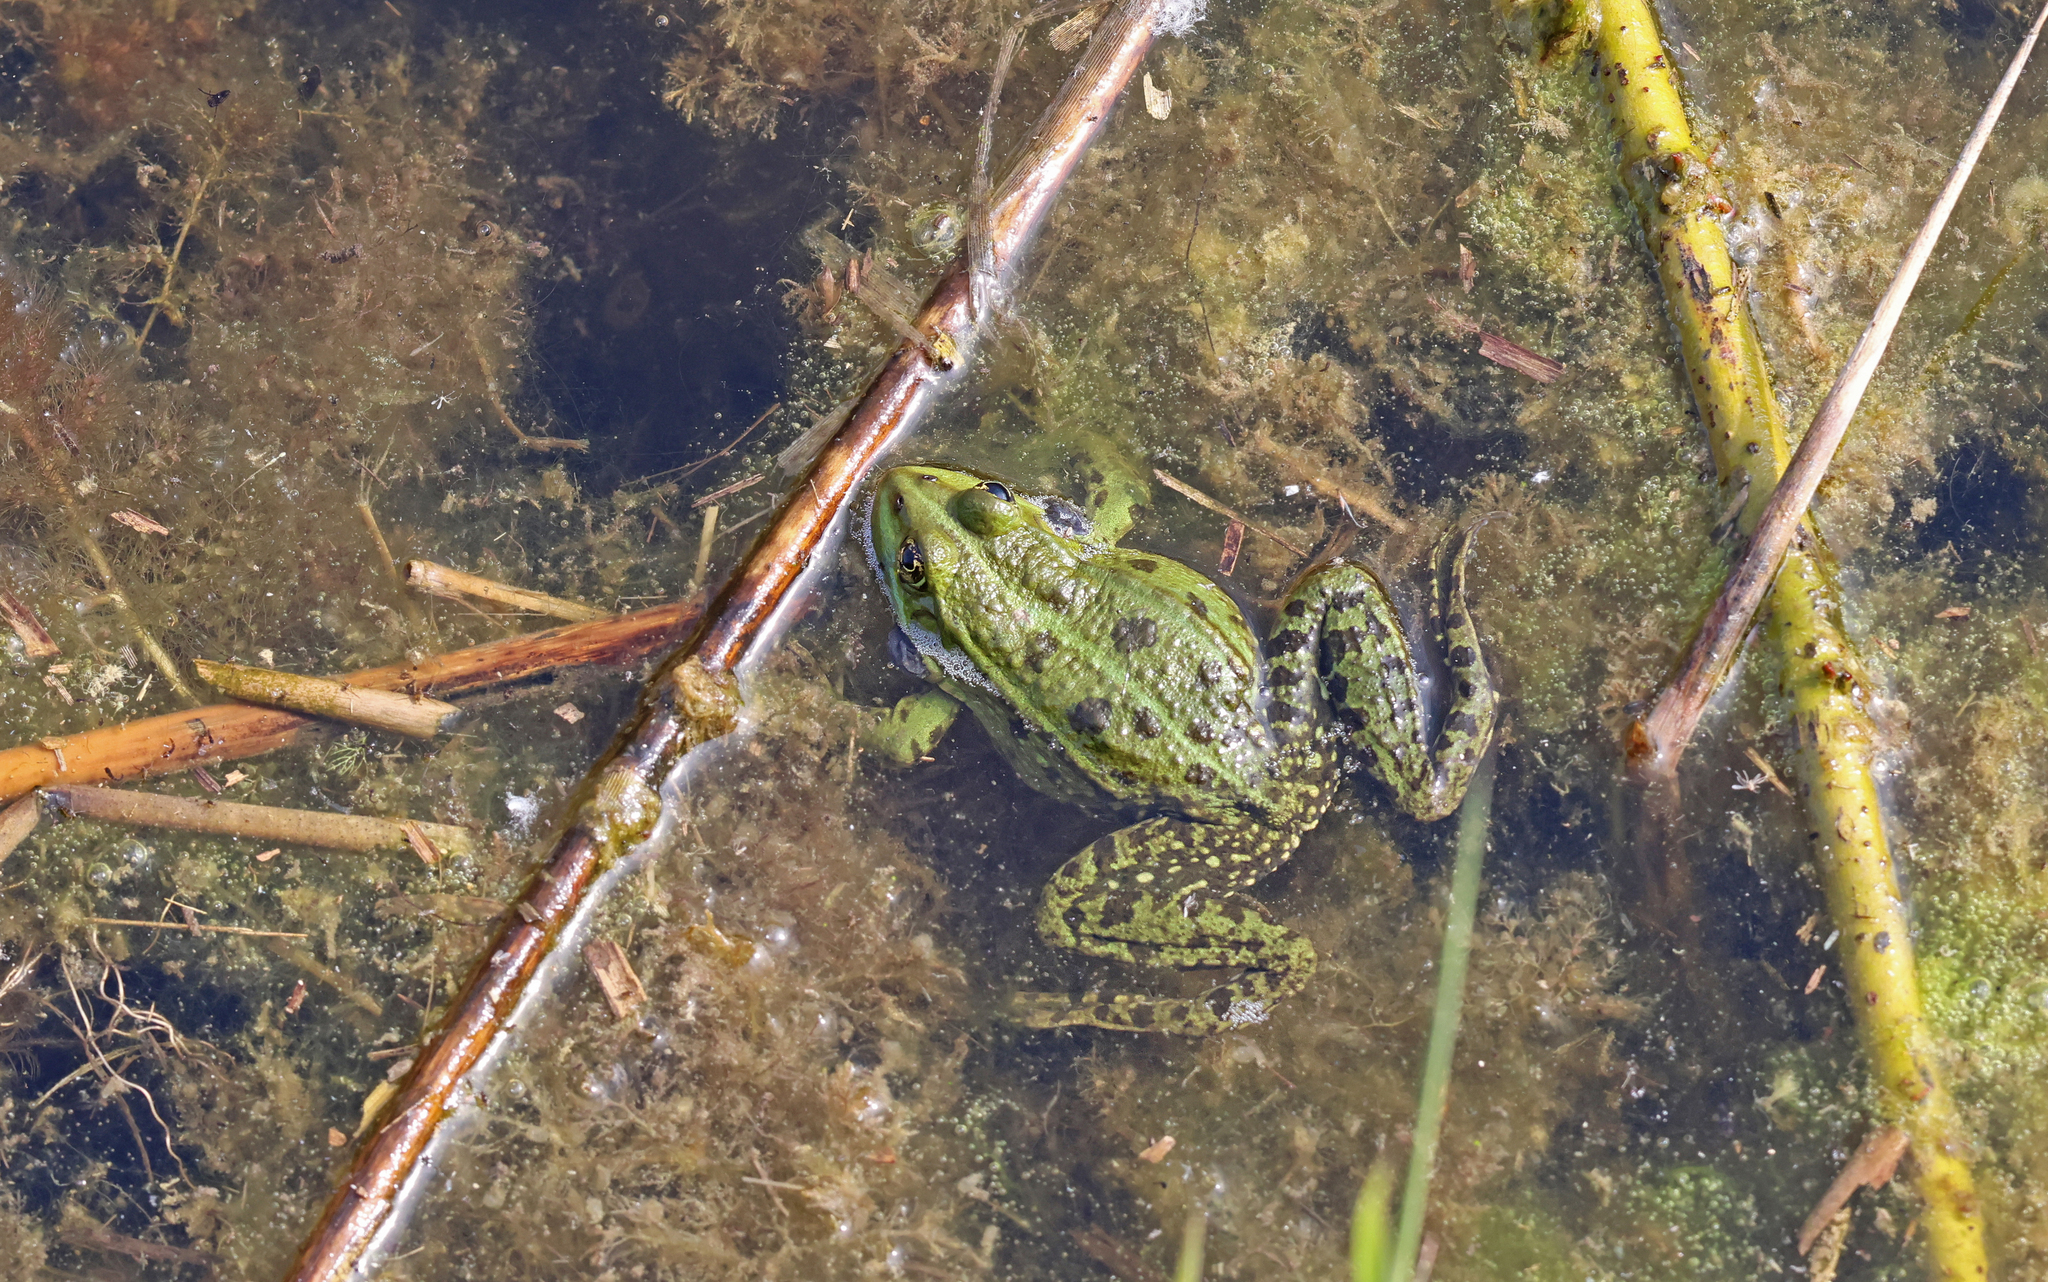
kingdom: Animalia
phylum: Chordata
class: Amphibia
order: Anura
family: Ranidae
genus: Pelophylax
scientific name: Pelophylax
